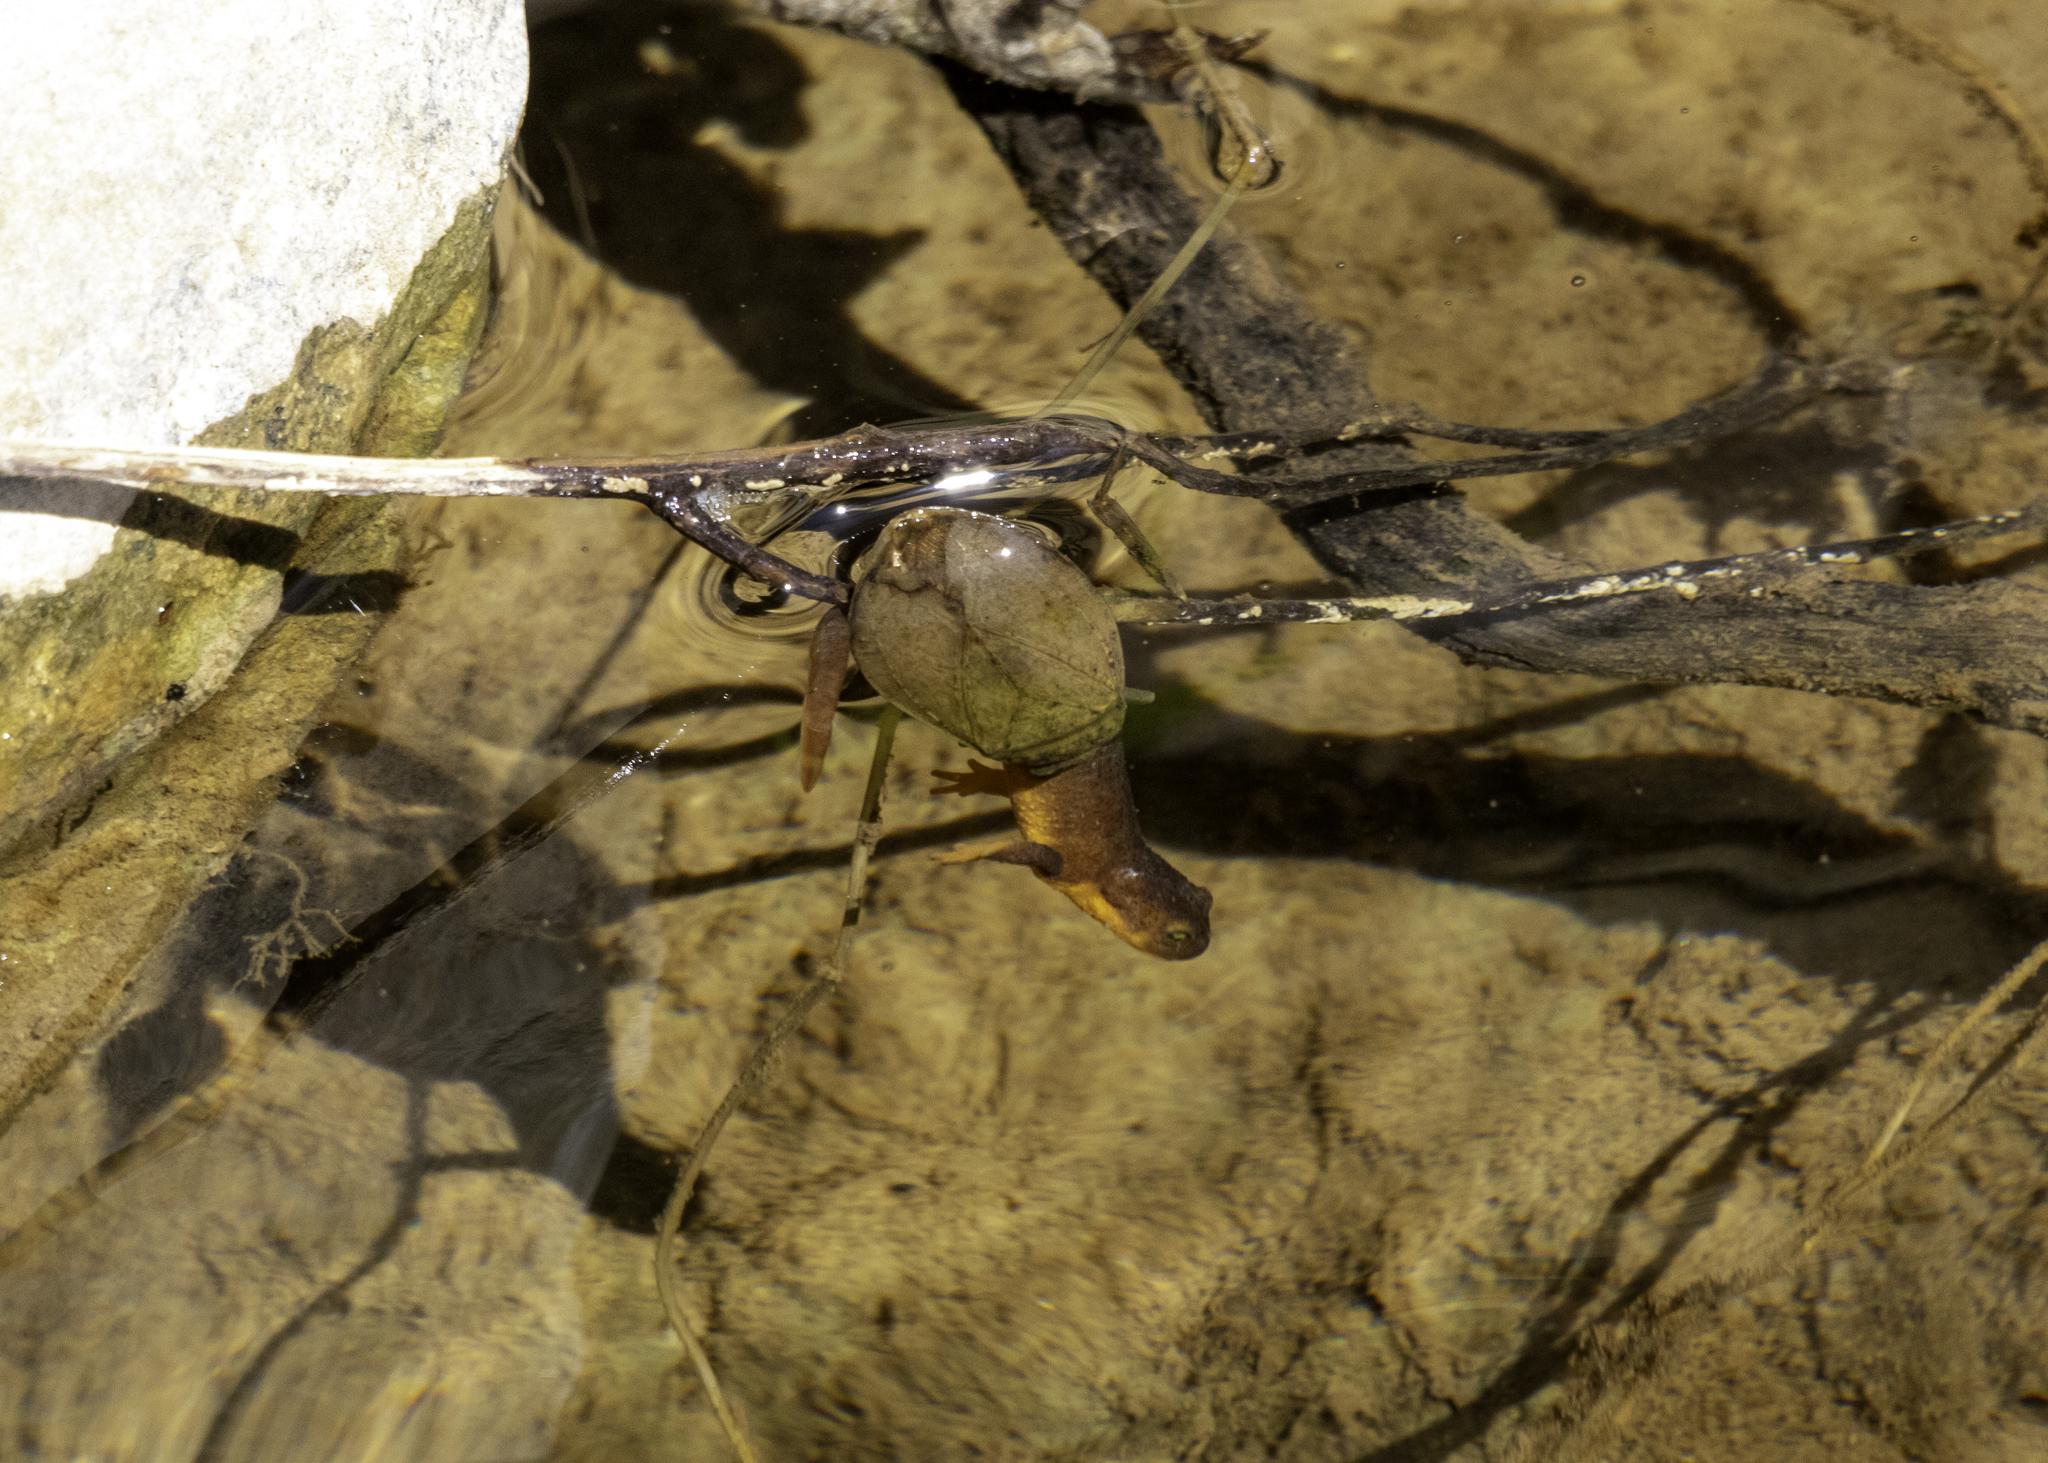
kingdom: Animalia
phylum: Arthropoda
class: Insecta
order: Hemiptera
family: Belostomatidae
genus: Abedus
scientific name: Abedus indentatus
